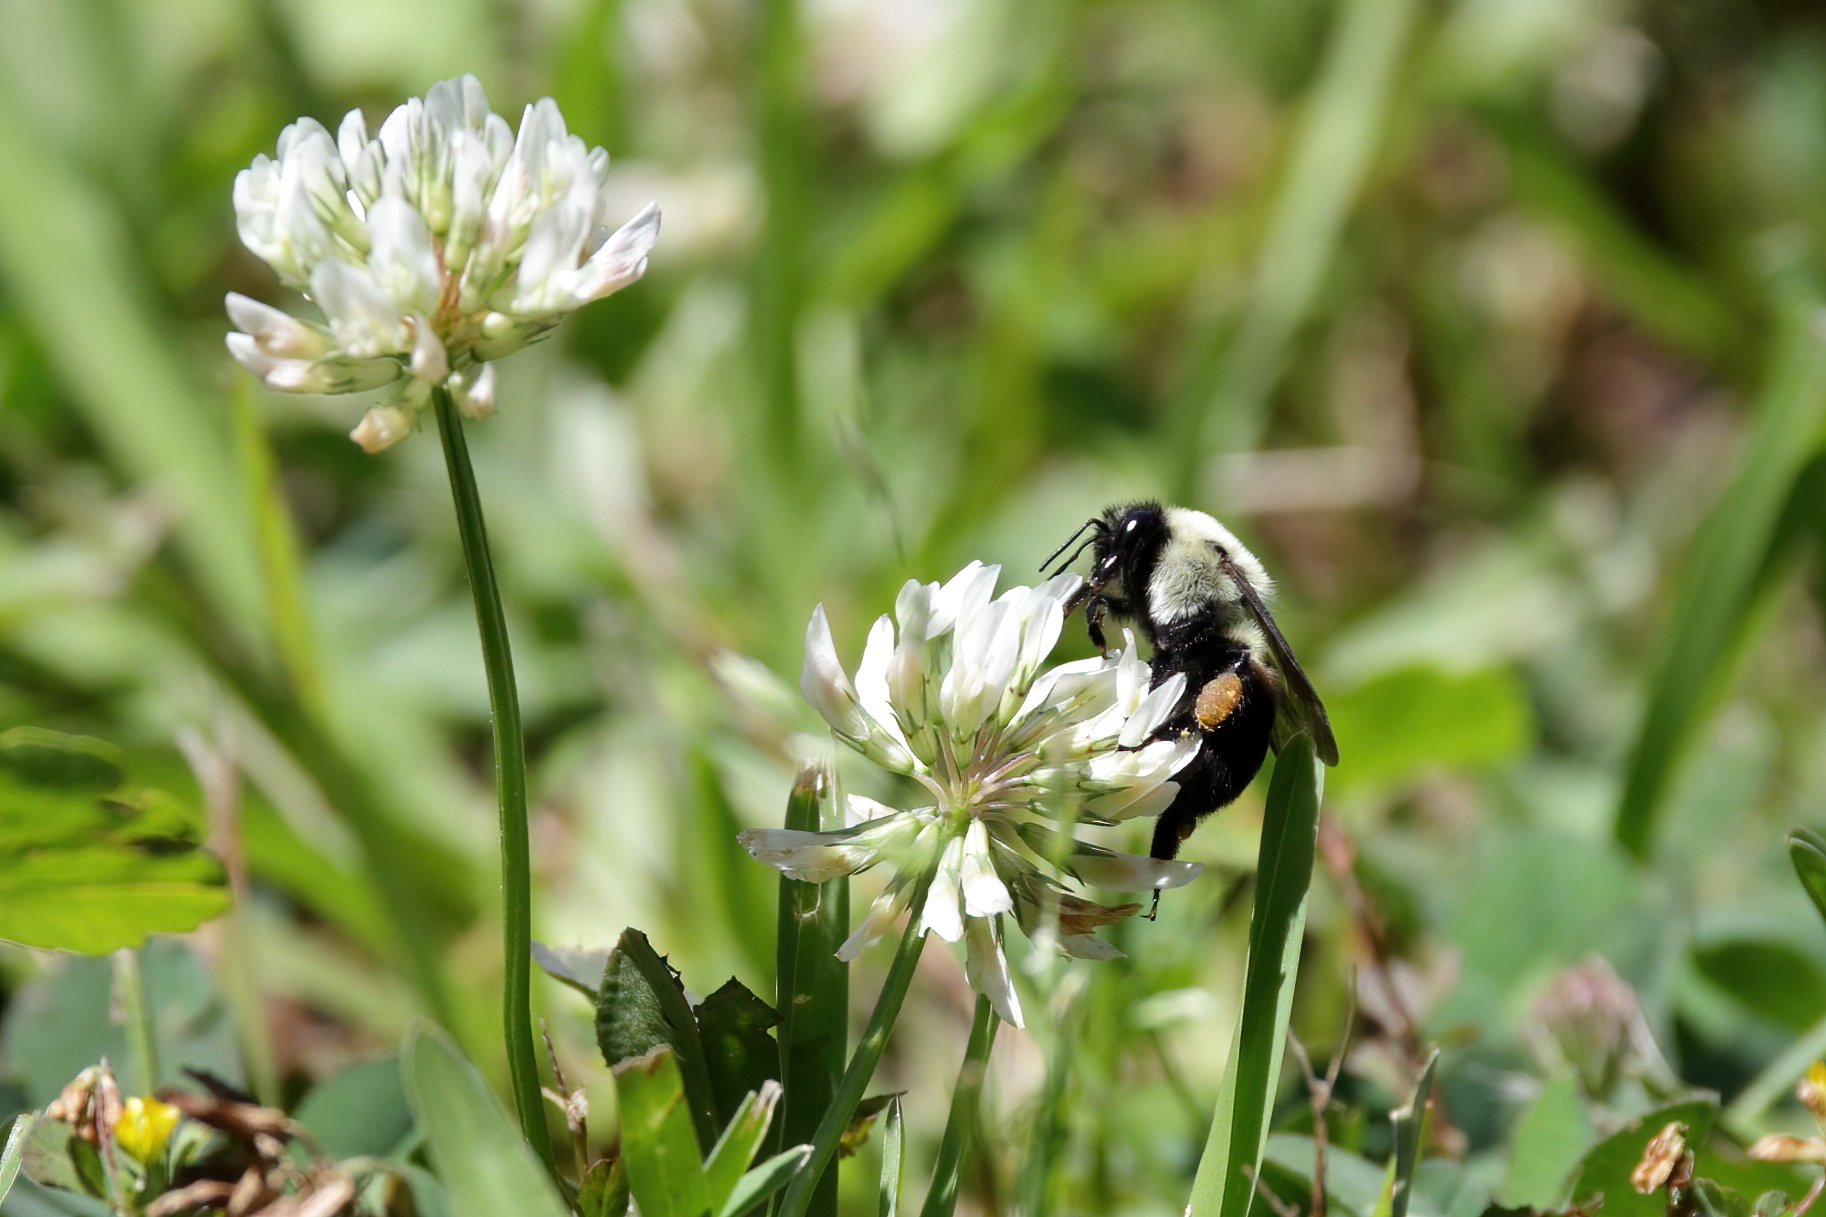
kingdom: Animalia
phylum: Arthropoda
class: Insecta
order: Hymenoptera
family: Apidae
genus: Bombus
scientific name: Bombus griseocollis
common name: Brown-belted bumble bee
